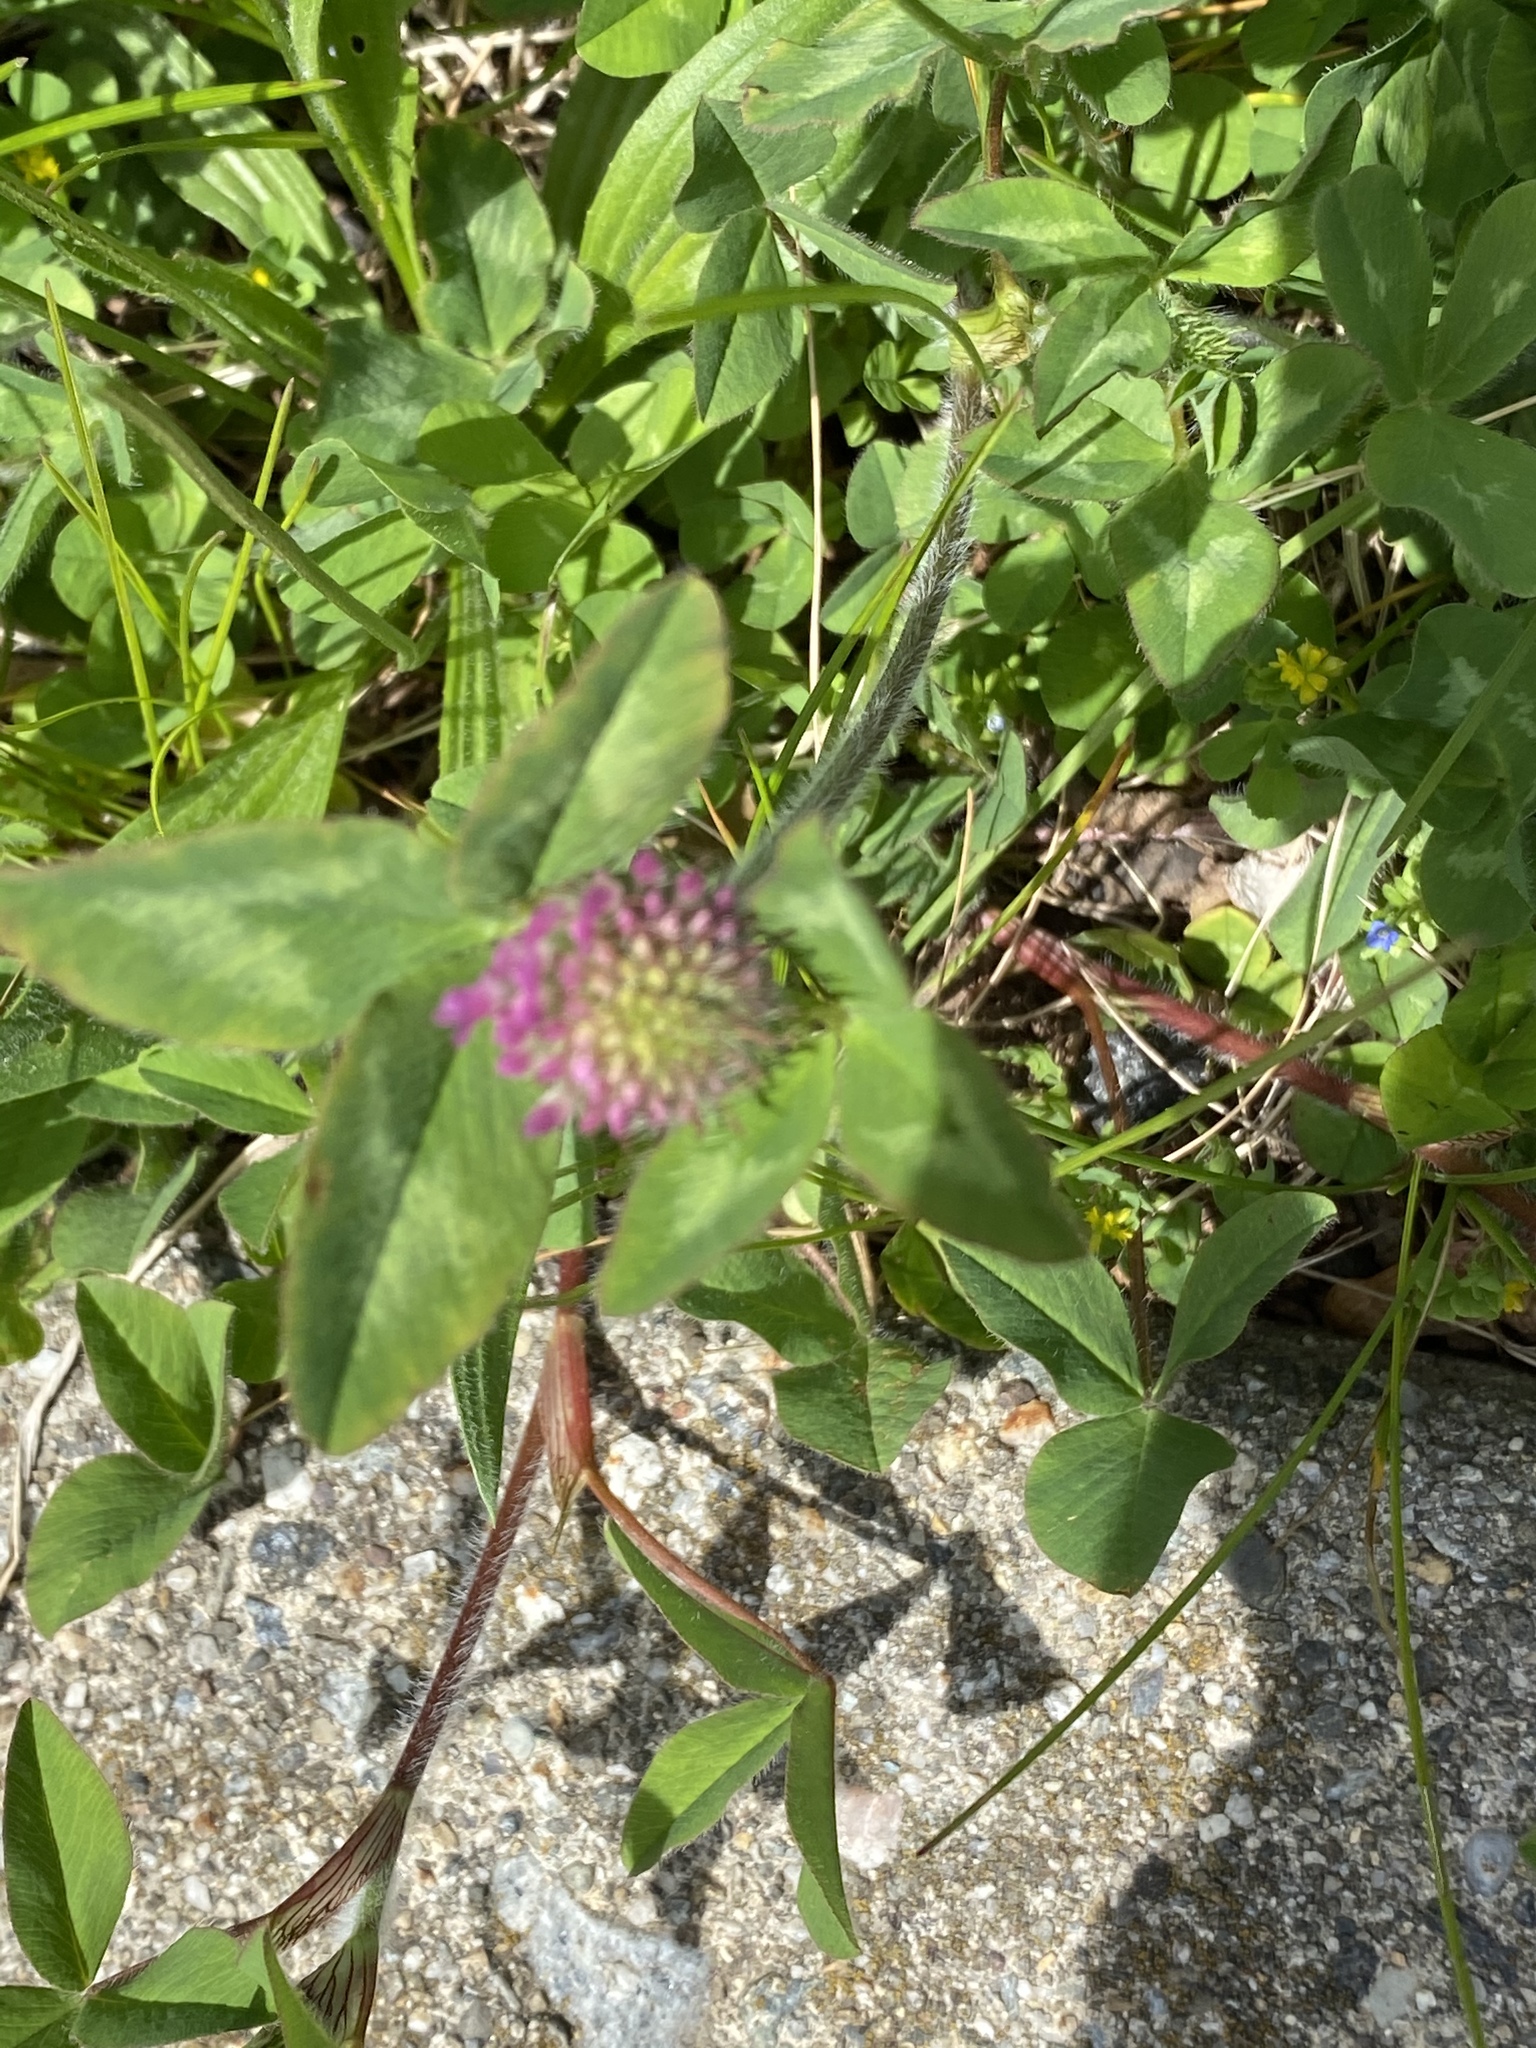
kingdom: Plantae
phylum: Tracheophyta
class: Magnoliopsida
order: Fabales
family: Fabaceae
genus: Trifolium
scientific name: Trifolium pratense
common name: Red clover
